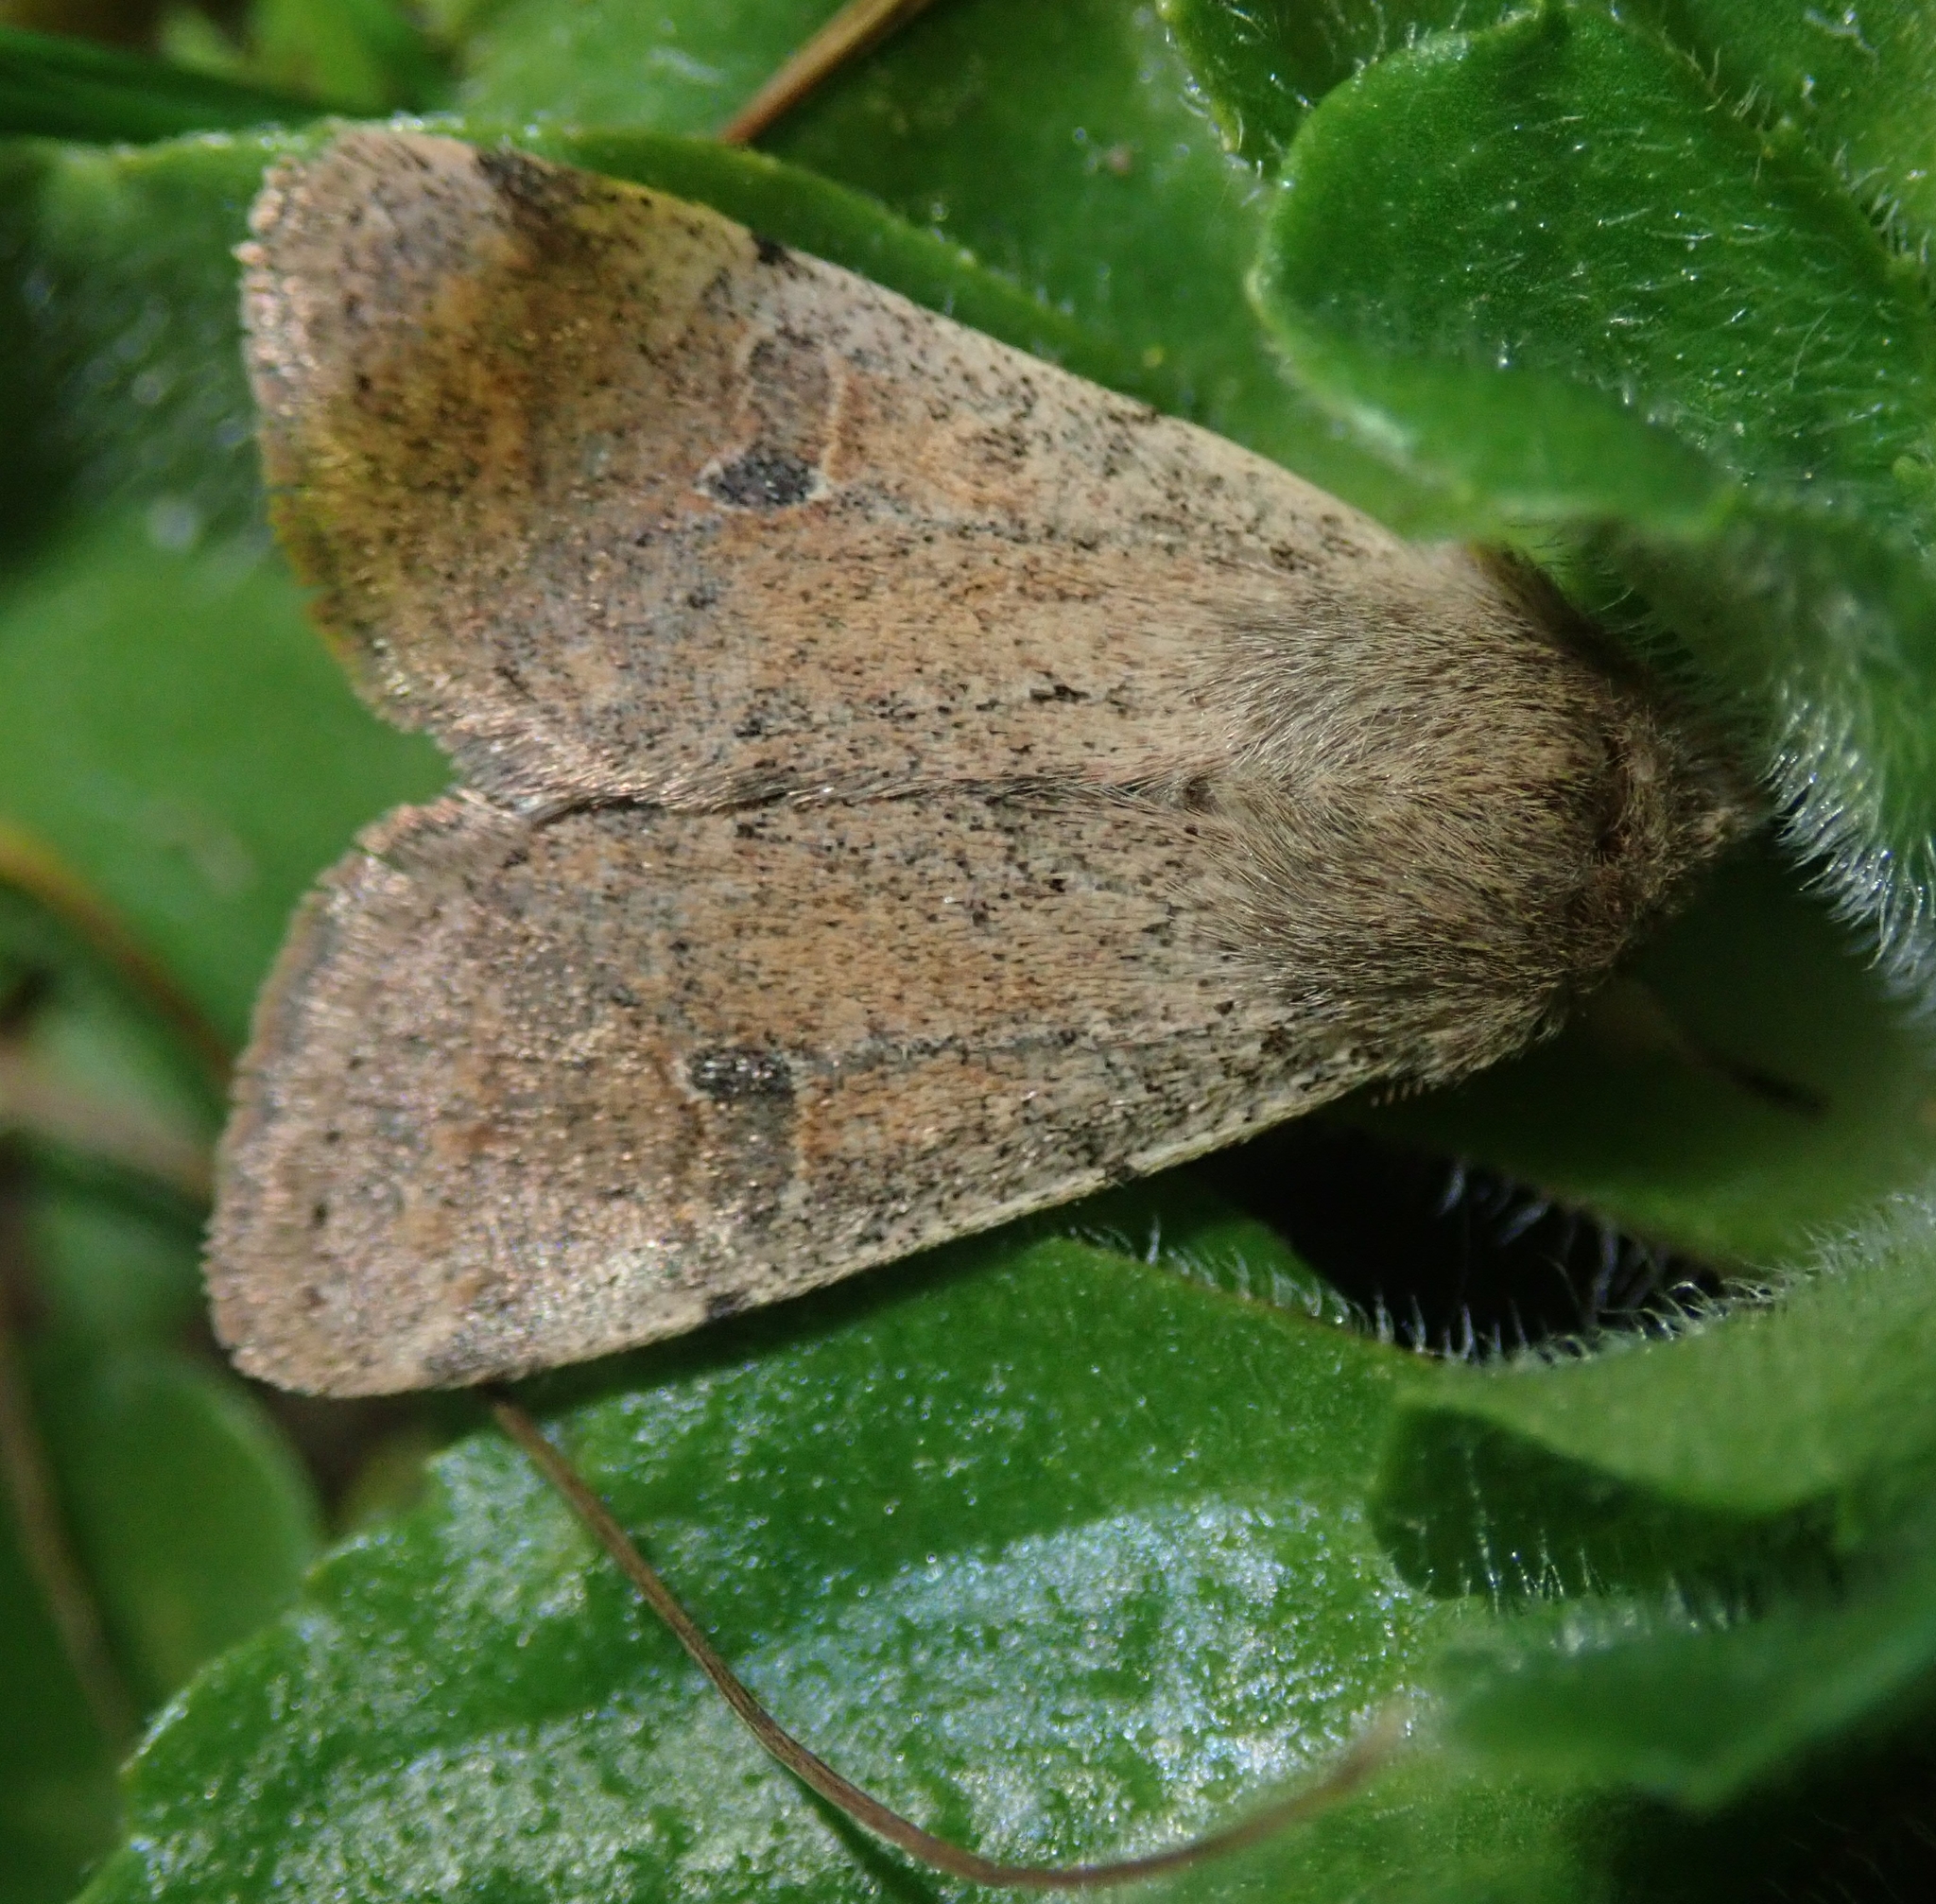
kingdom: Animalia
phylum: Arthropoda
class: Insecta
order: Lepidoptera
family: Noctuidae
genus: Orthosia
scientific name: Orthosia cruda
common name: Small quaker
